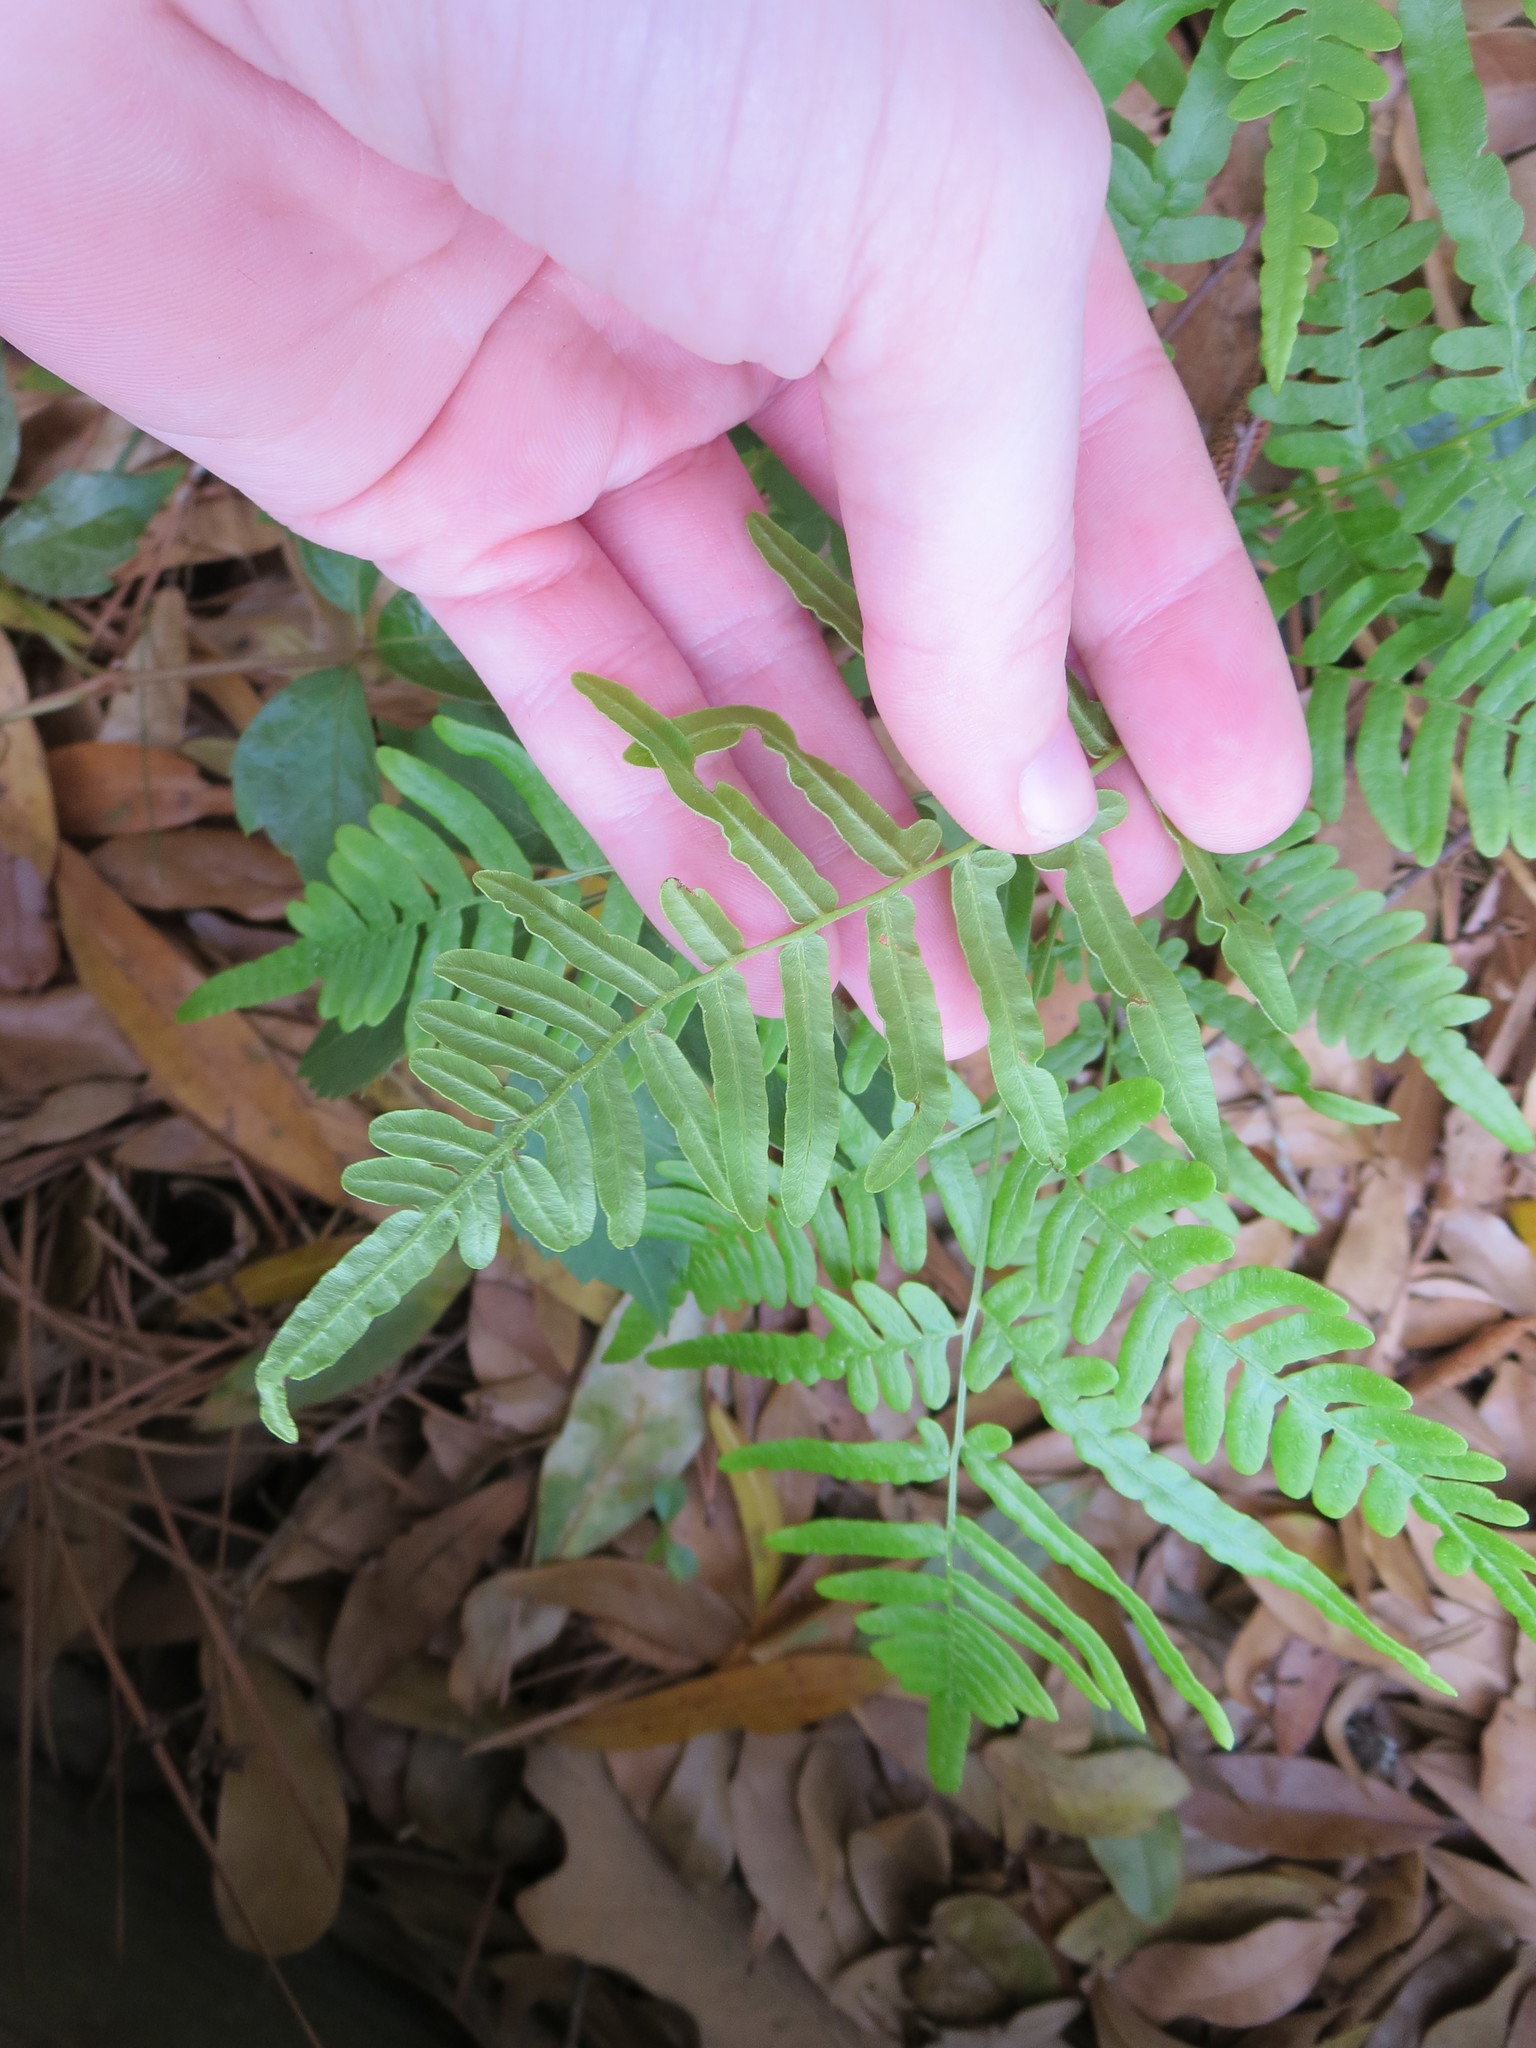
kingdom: Plantae
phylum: Tracheophyta
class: Polypodiopsida
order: Polypodiales
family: Dennstaedtiaceae
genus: Pteridium
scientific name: Pteridium aquilinum
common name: Bracken
